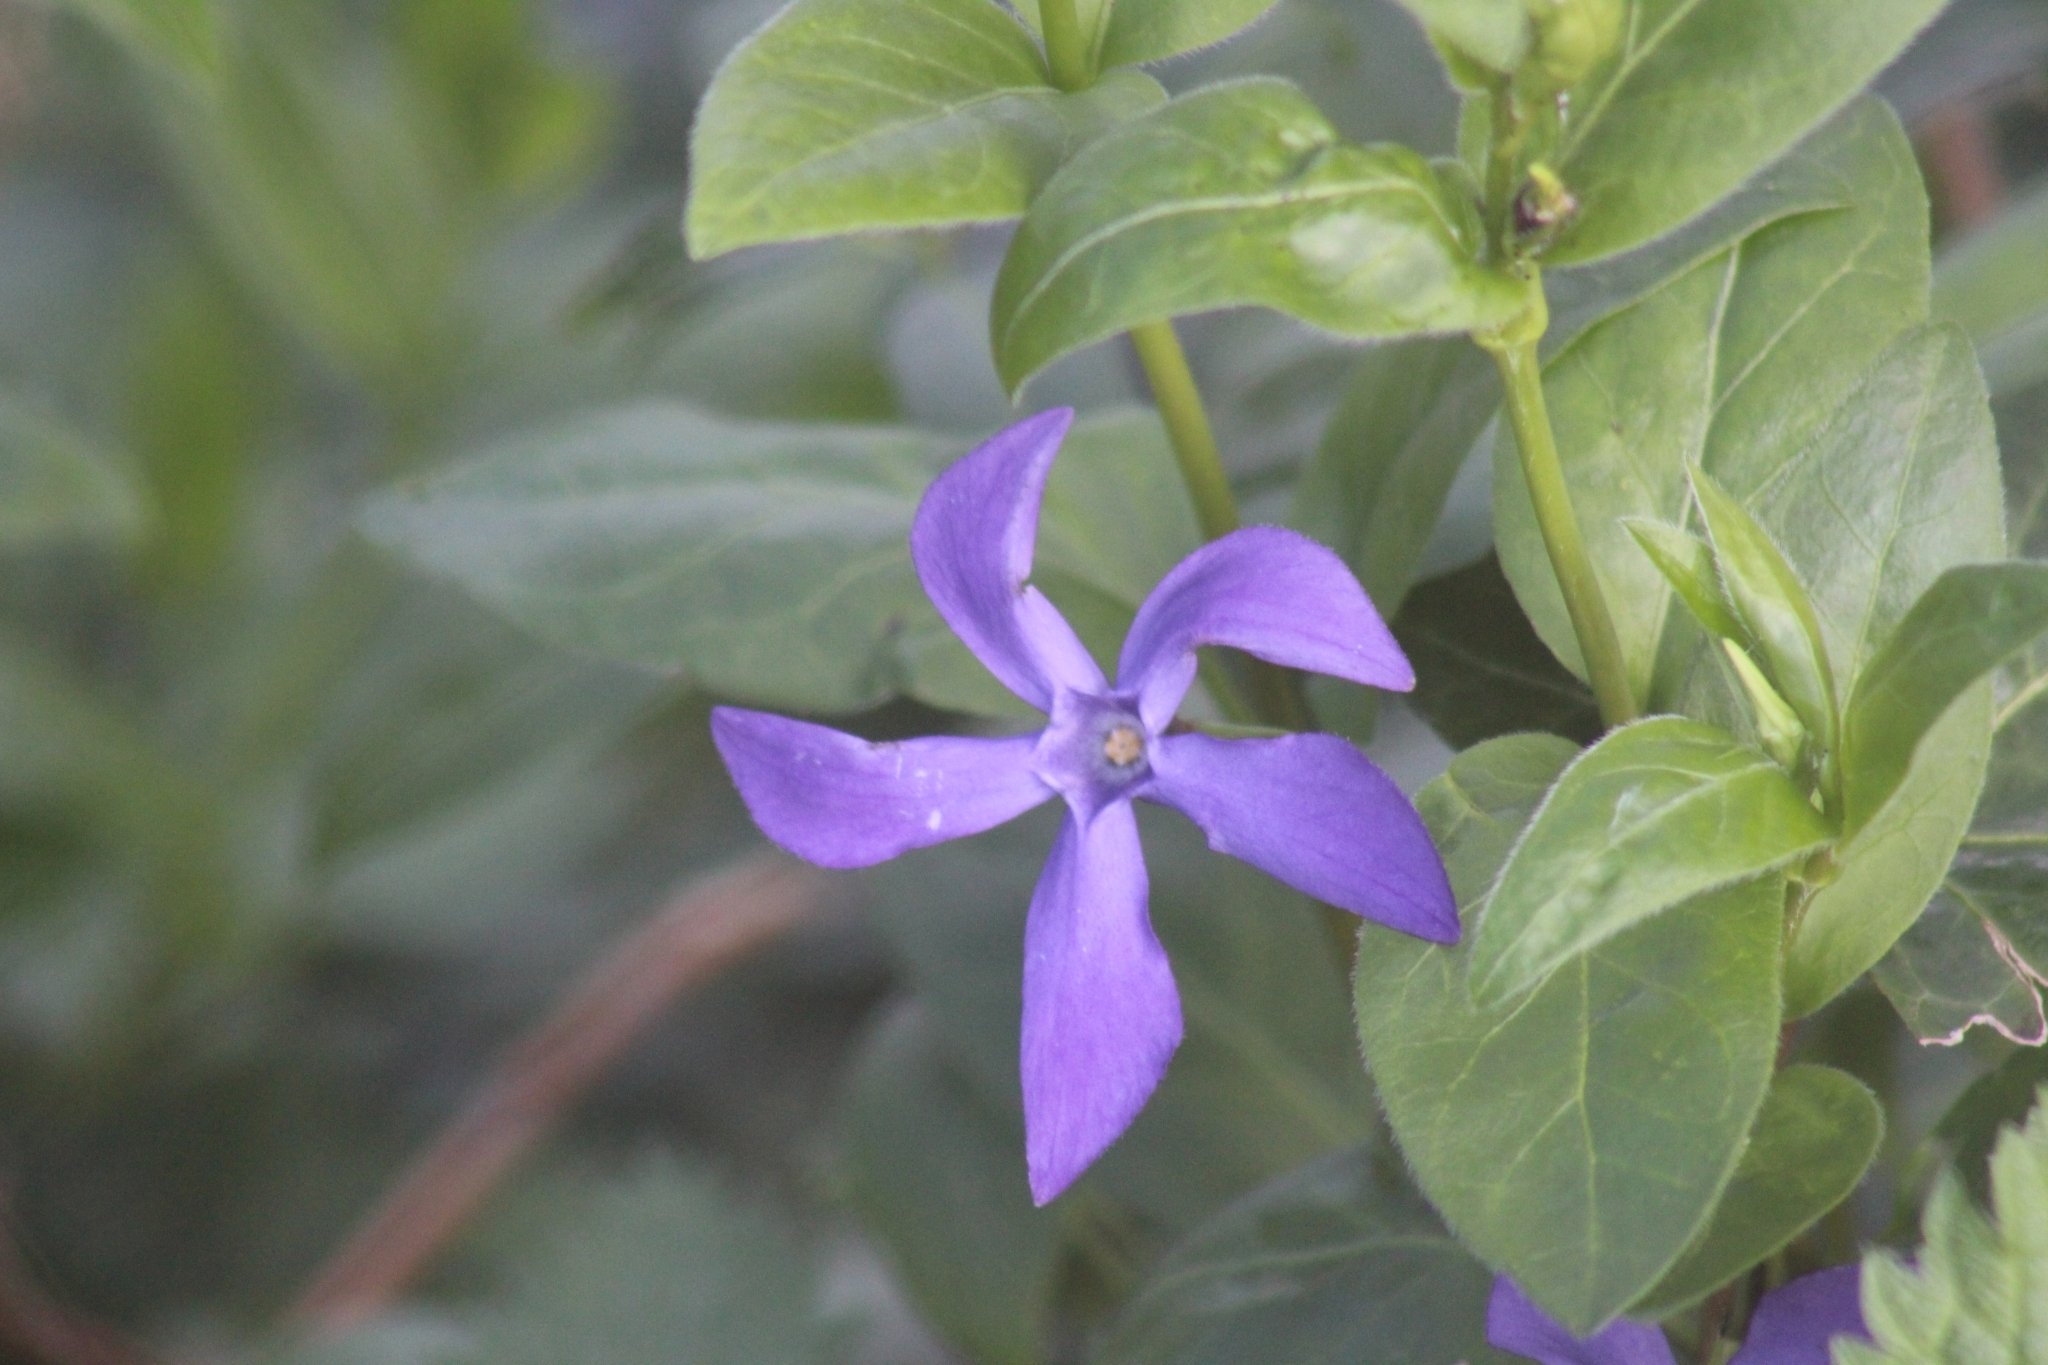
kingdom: Plantae
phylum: Tracheophyta
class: Magnoliopsida
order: Gentianales
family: Apocynaceae
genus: Vinca
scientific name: Vinca major
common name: Greater periwinkle
